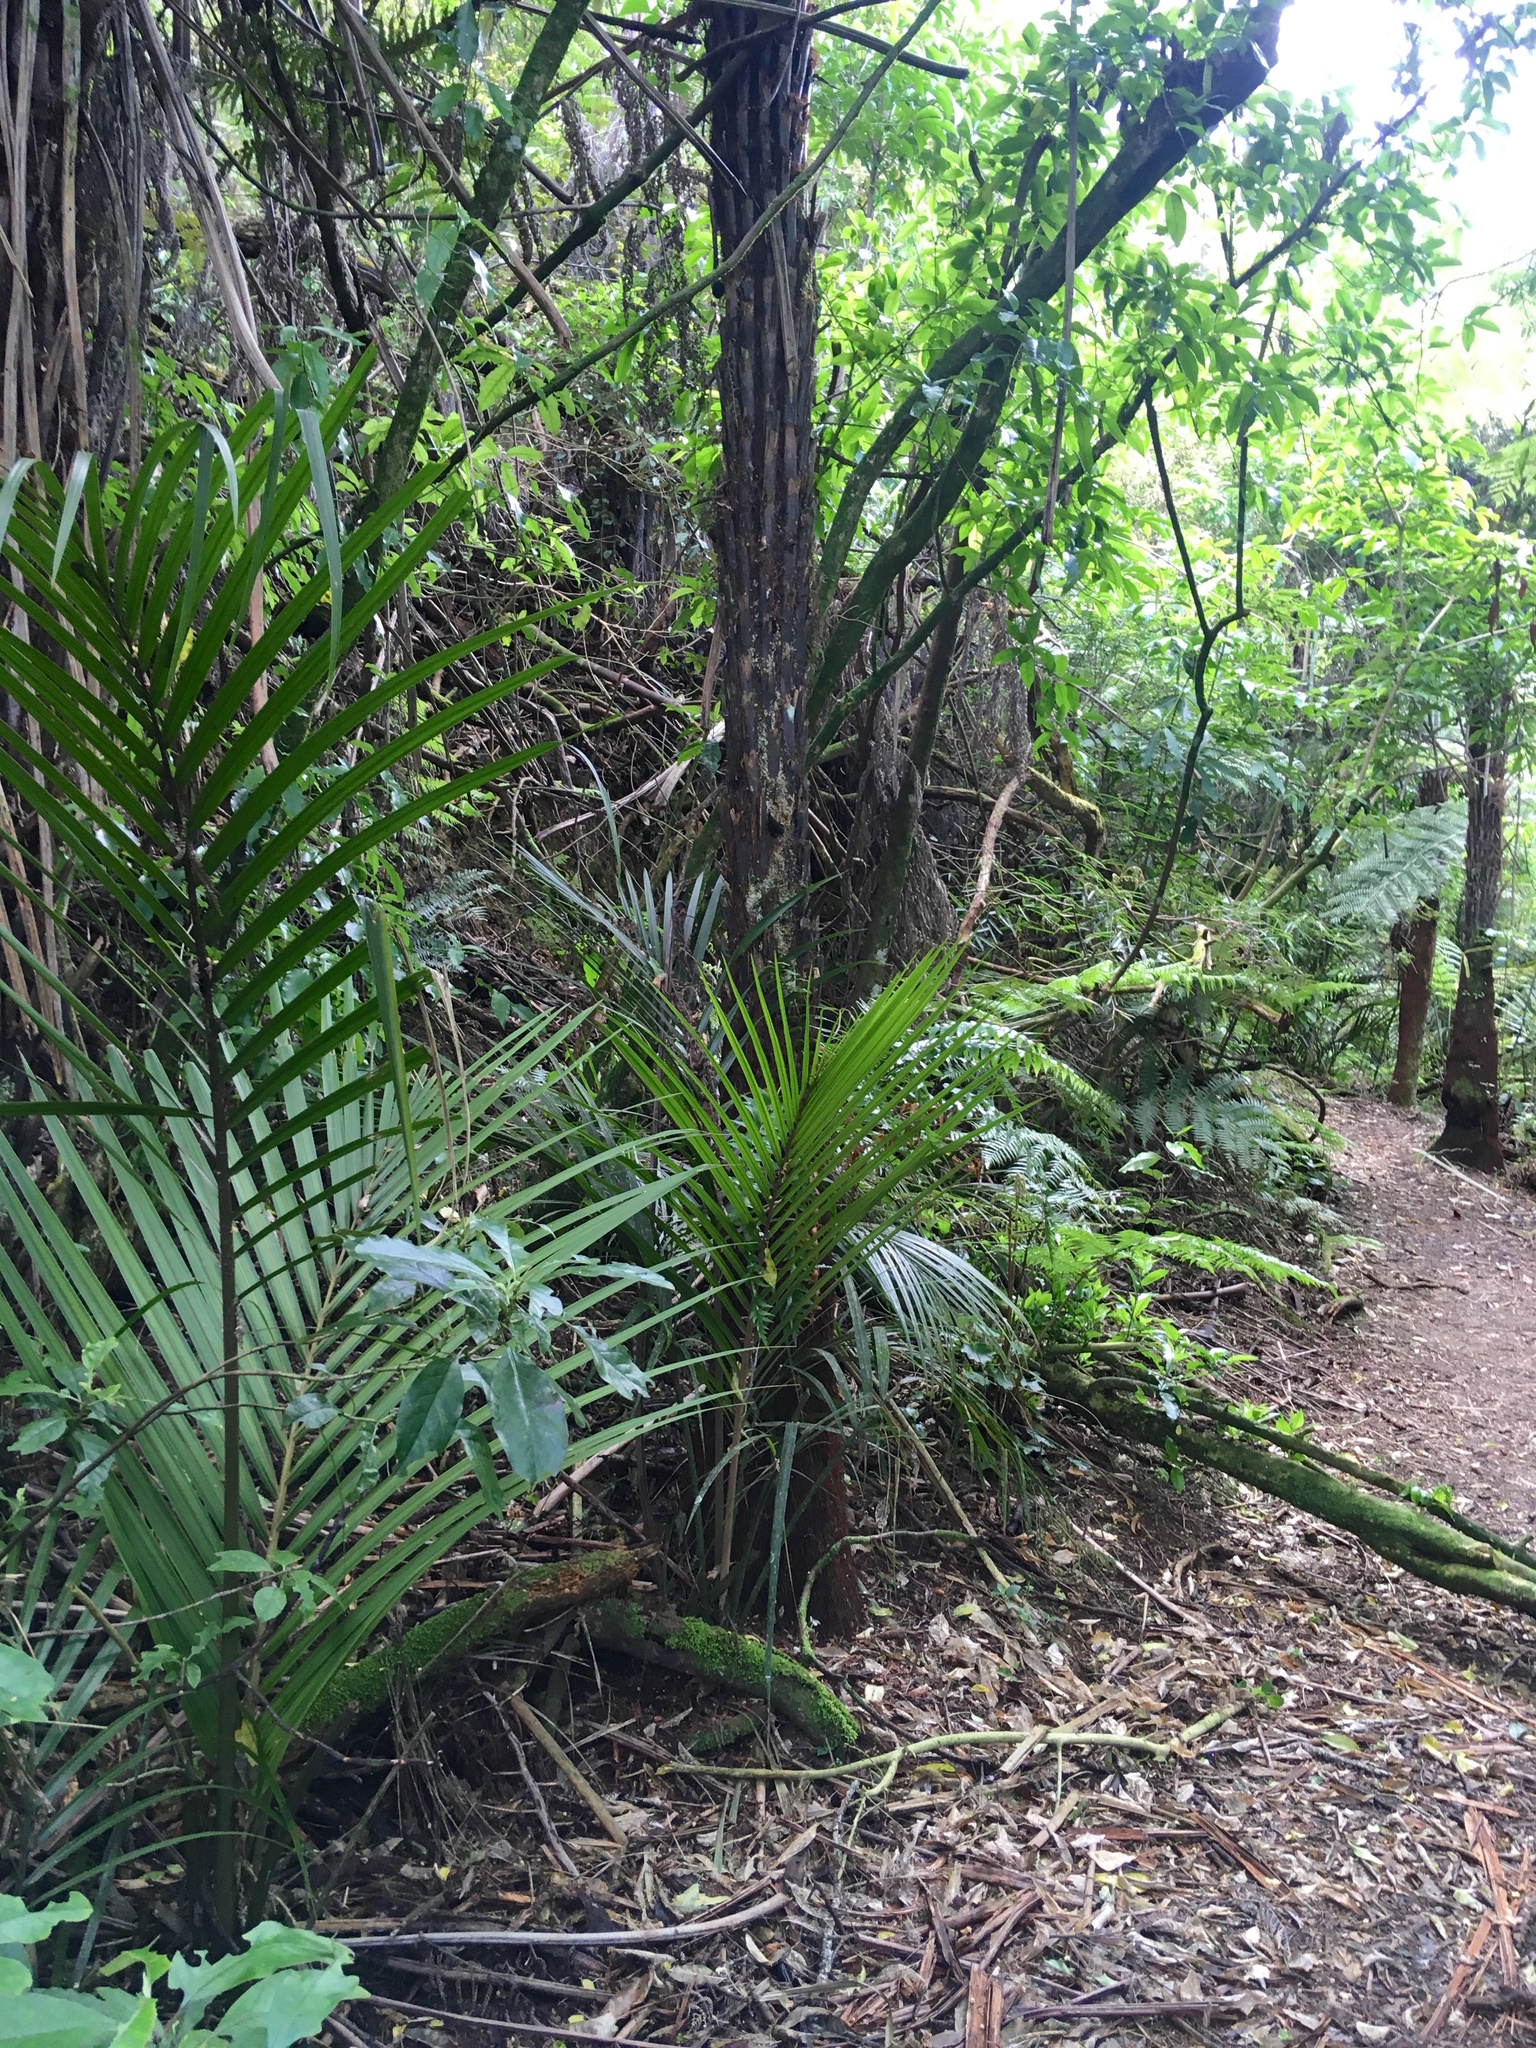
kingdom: Plantae
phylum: Tracheophyta
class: Liliopsida
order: Arecales
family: Arecaceae
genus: Rhopalostylis
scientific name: Rhopalostylis sapida
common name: Feather-duster palm
